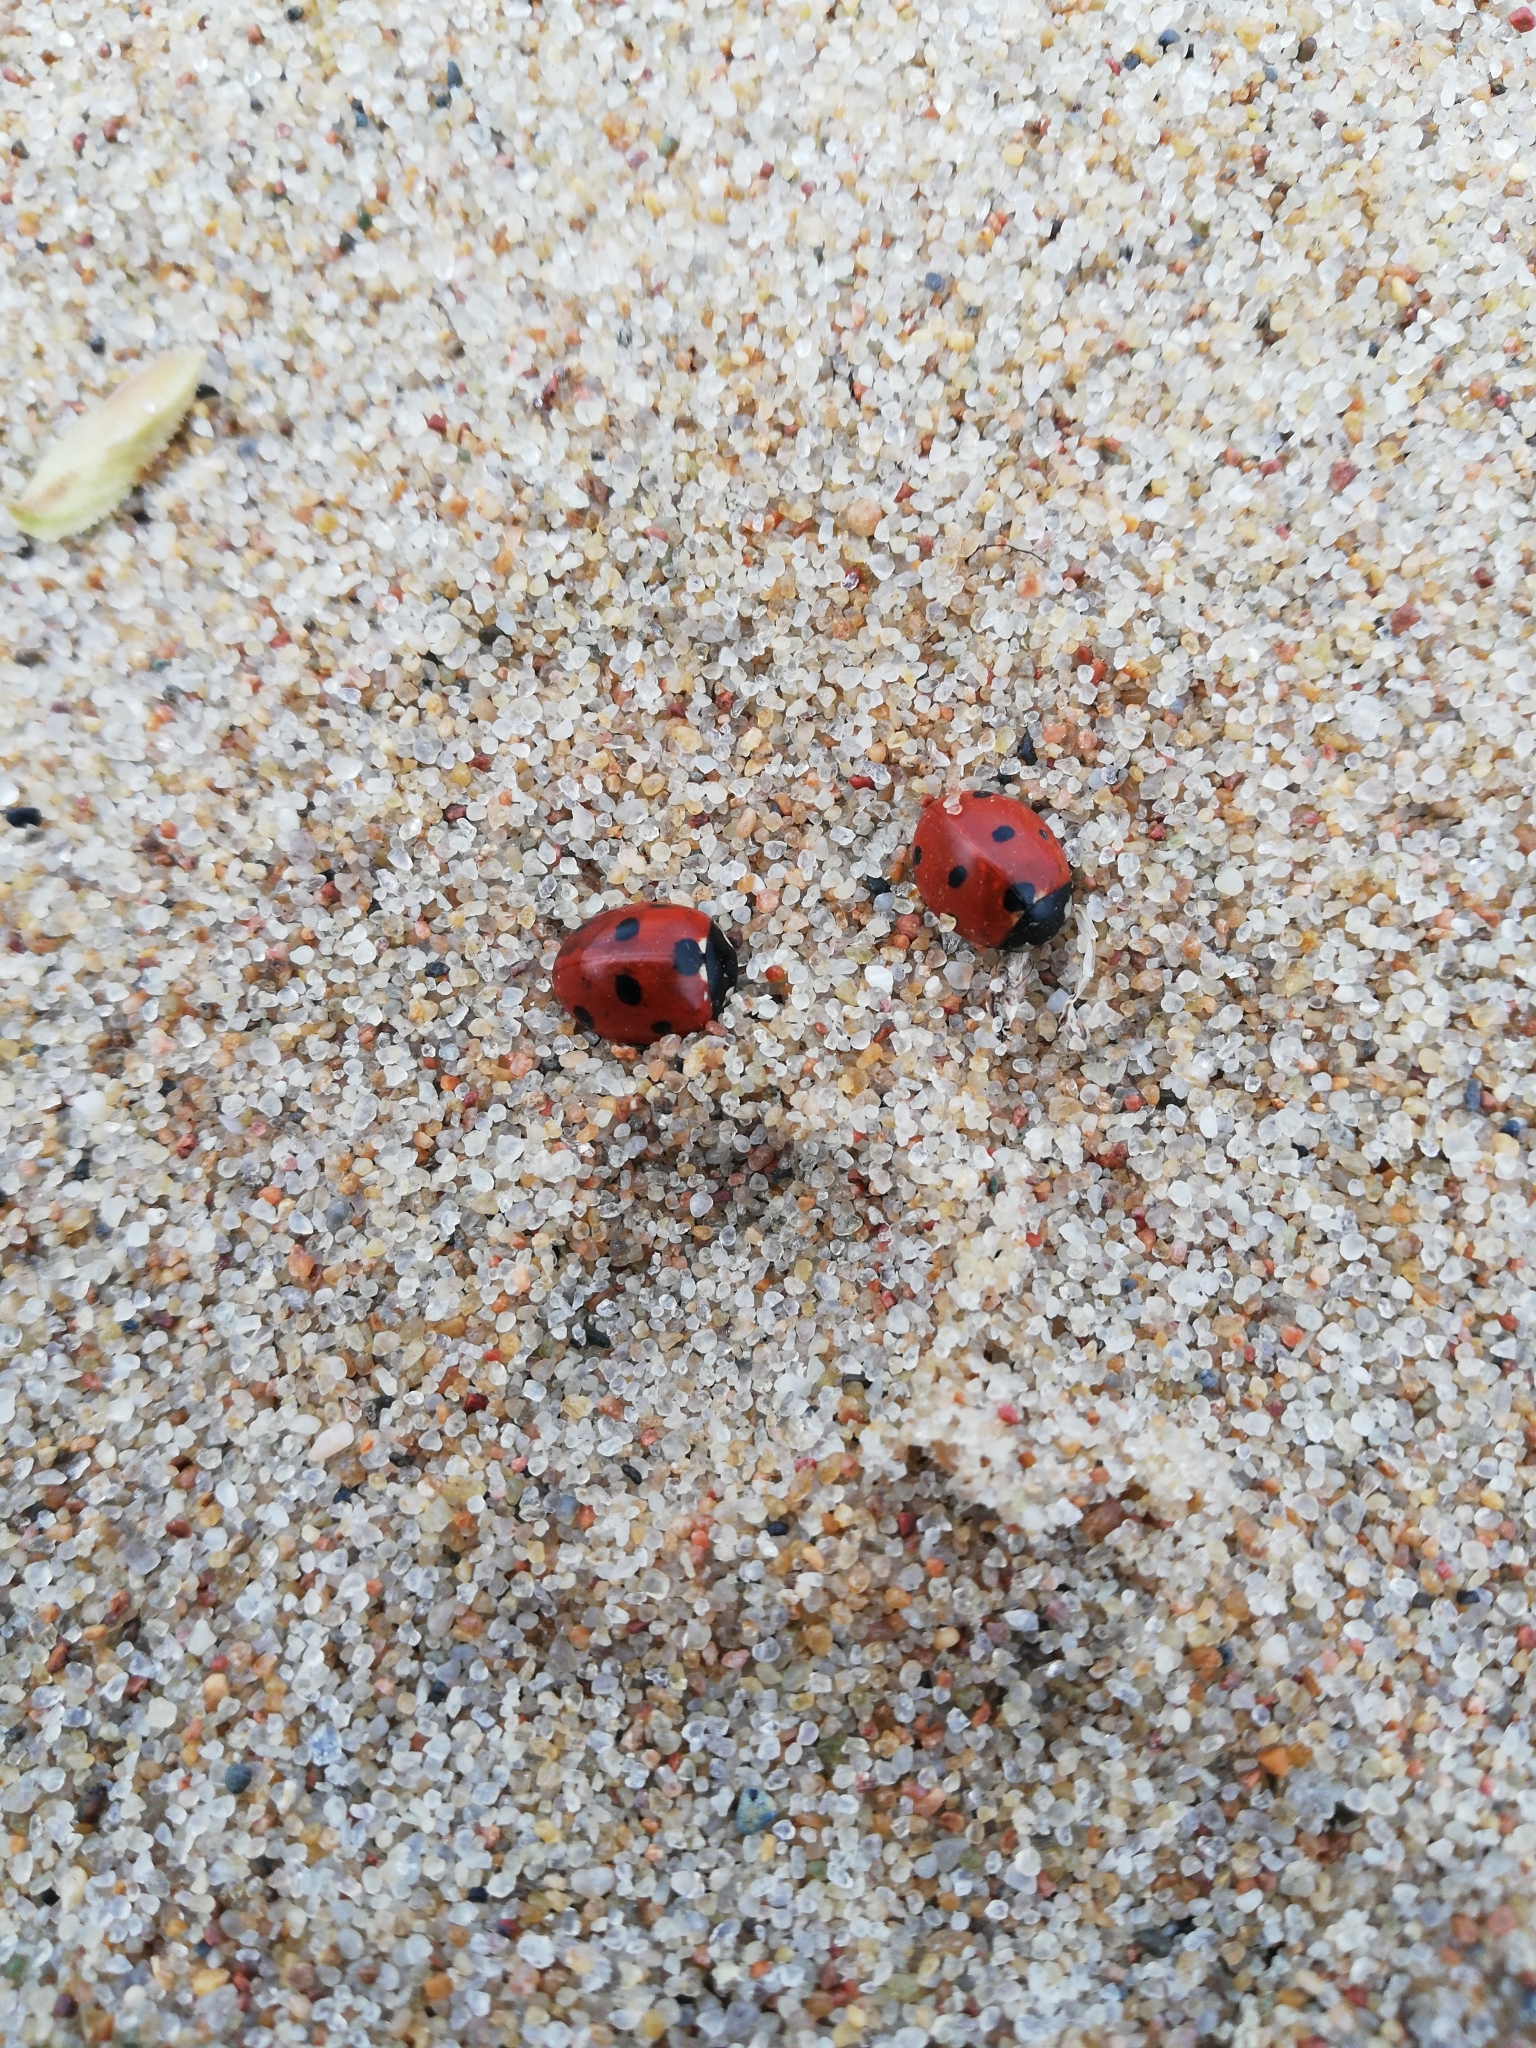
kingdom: Animalia
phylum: Arthropoda
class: Insecta
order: Coleoptera
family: Coccinellidae
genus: Coccinella
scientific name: Coccinella septempunctata
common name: Sevenspotted lady beetle
